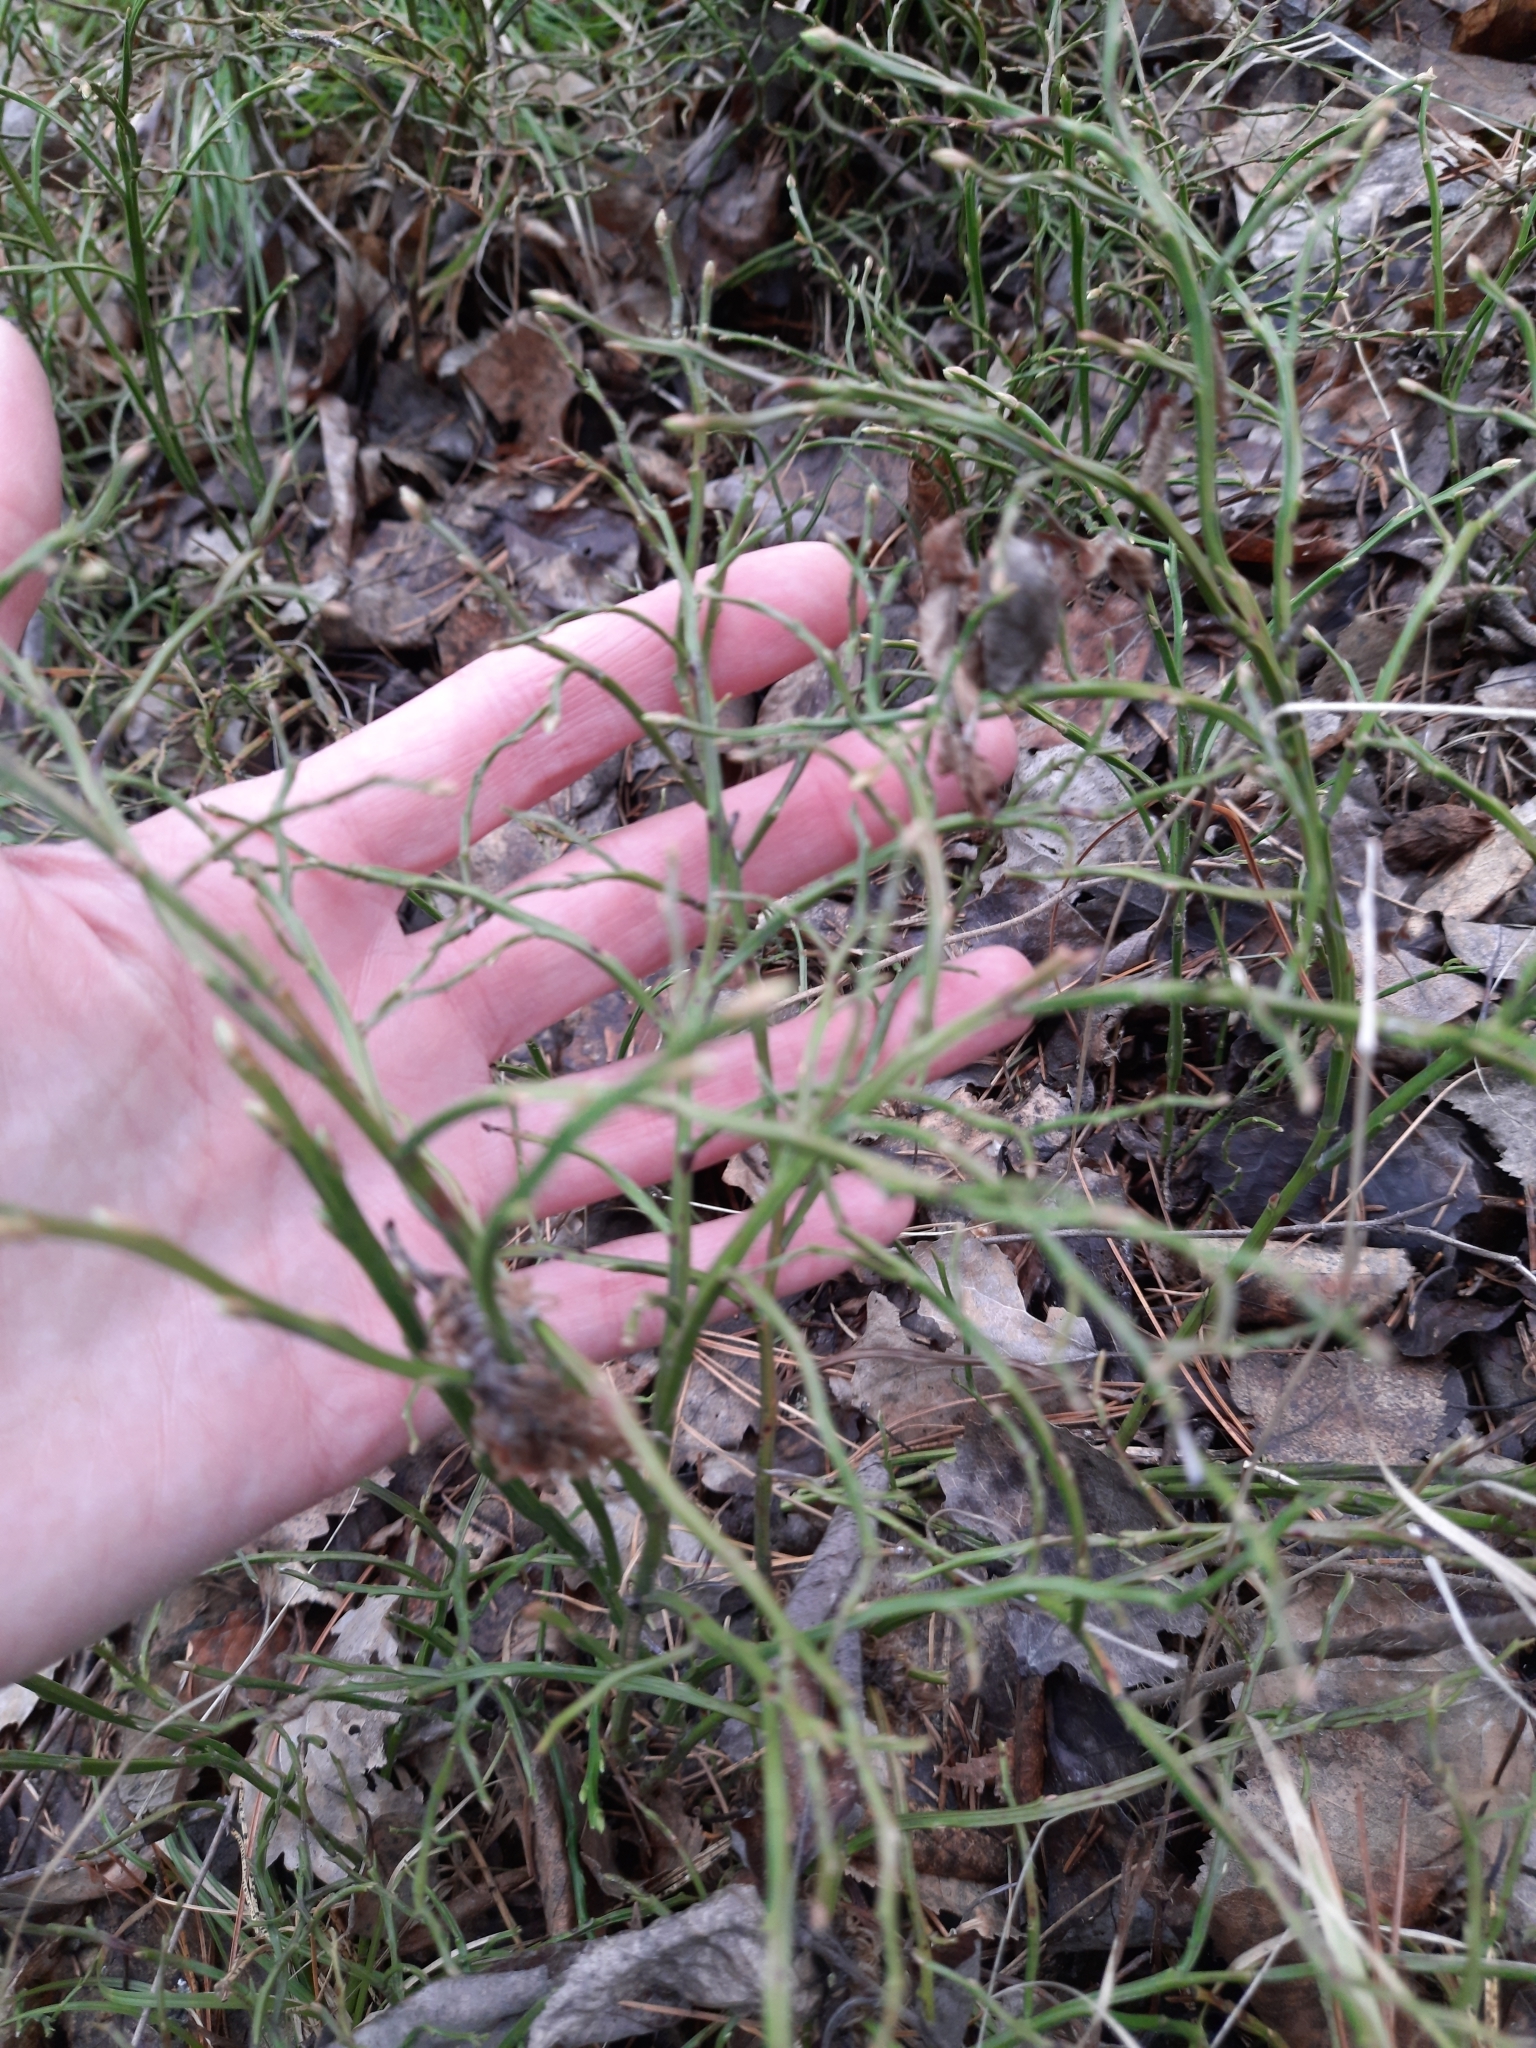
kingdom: Plantae
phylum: Tracheophyta
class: Magnoliopsida
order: Ericales
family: Ericaceae
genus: Vaccinium
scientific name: Vaccinium myrtillus
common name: Bilberry
